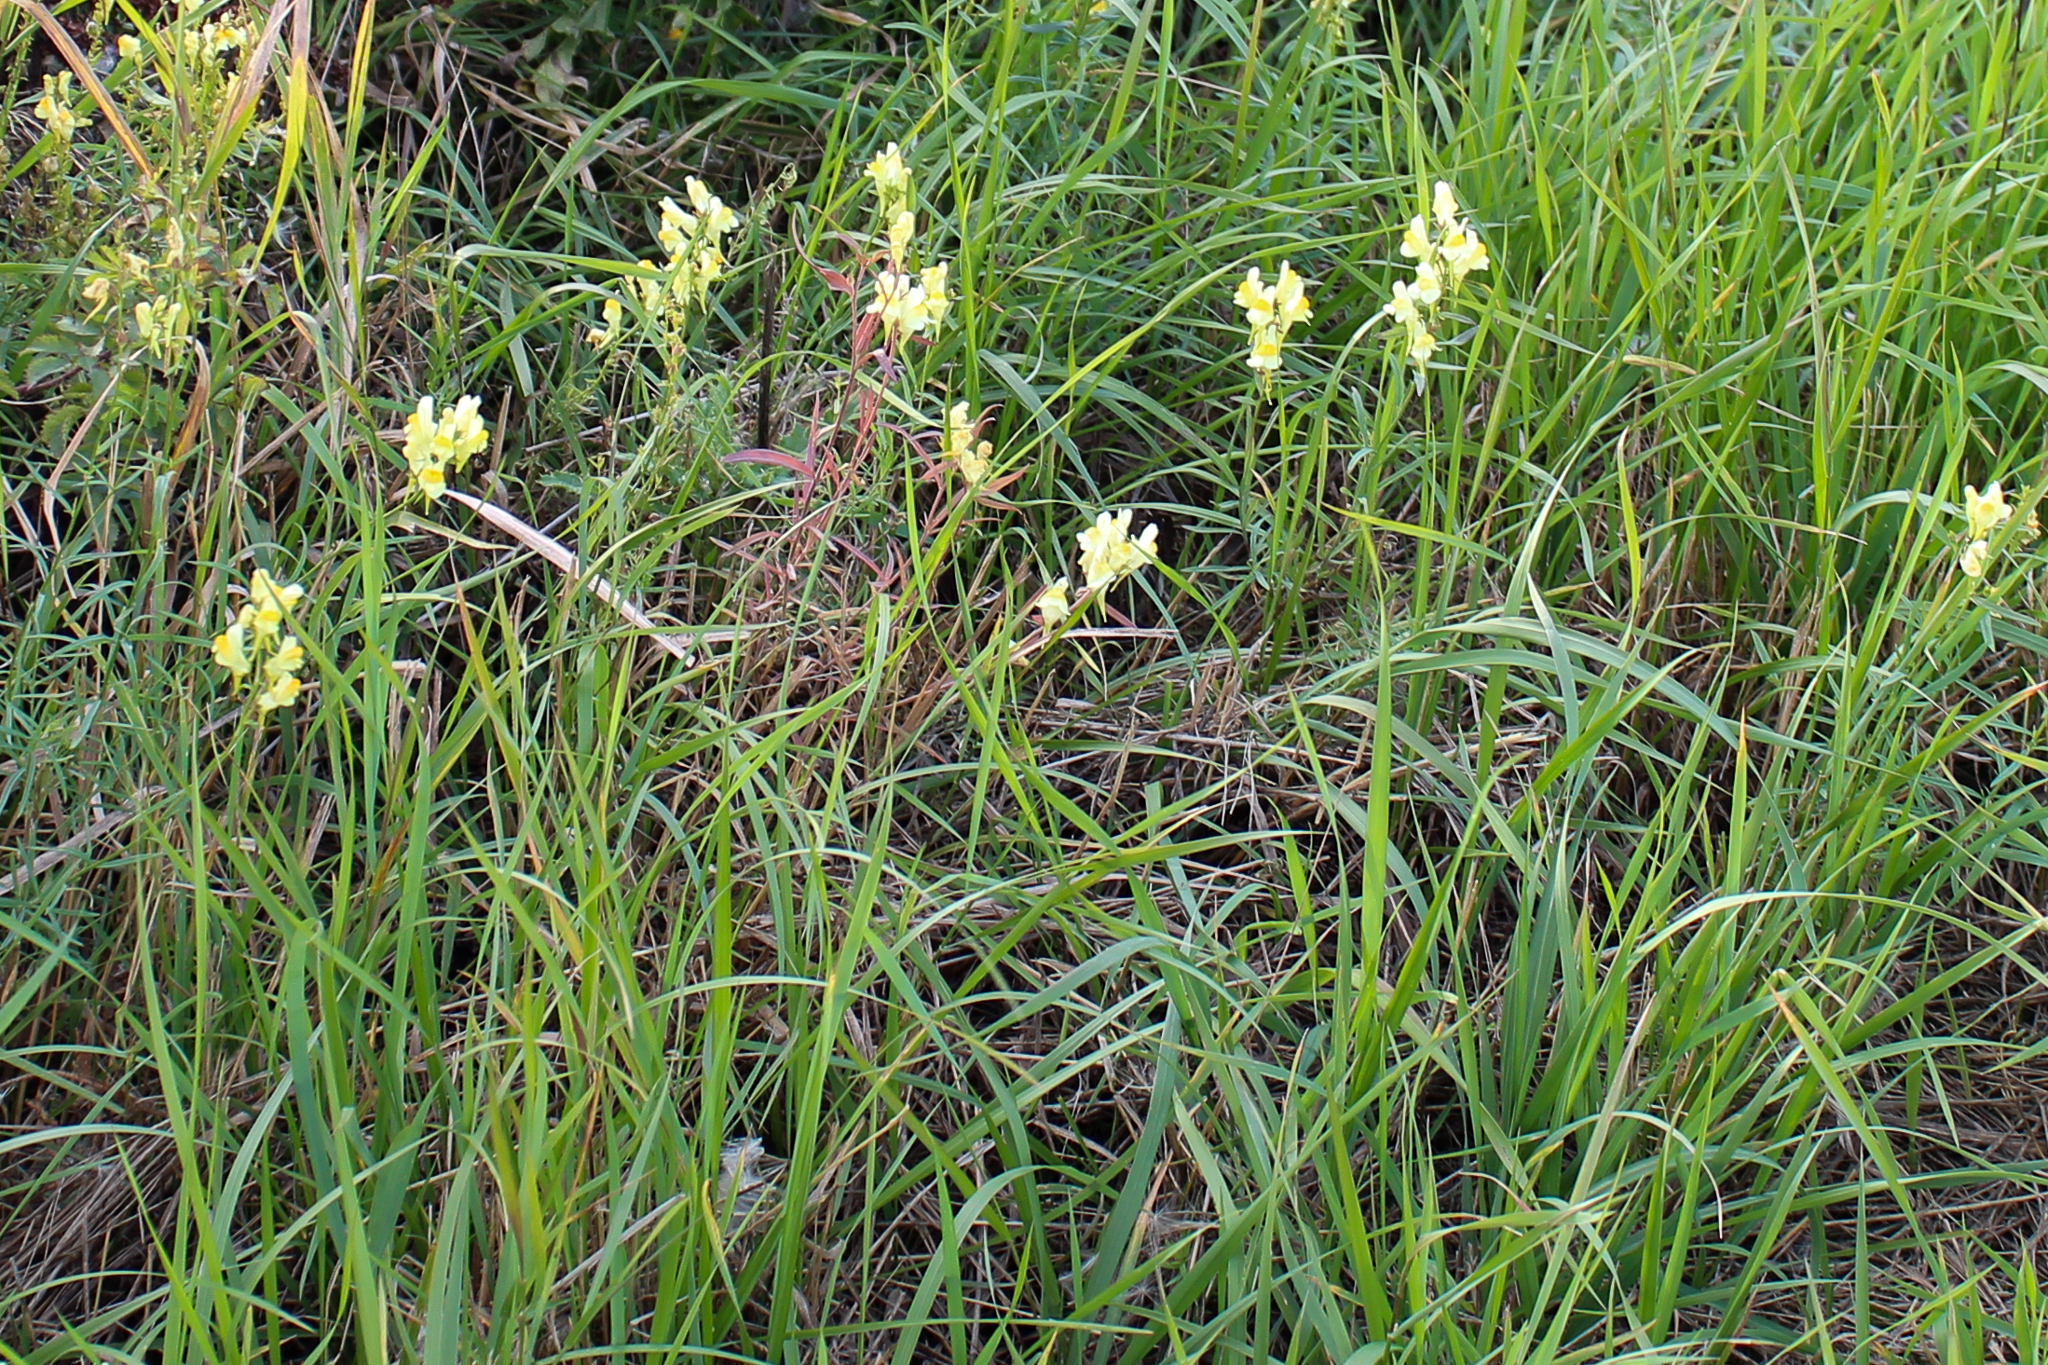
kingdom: Plantae
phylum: Tracheophyta
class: Magnoliopsida
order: Lamiales
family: Plantaginaceae
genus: Linaria
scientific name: Linaria vulgaris
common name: Butter and eggs
